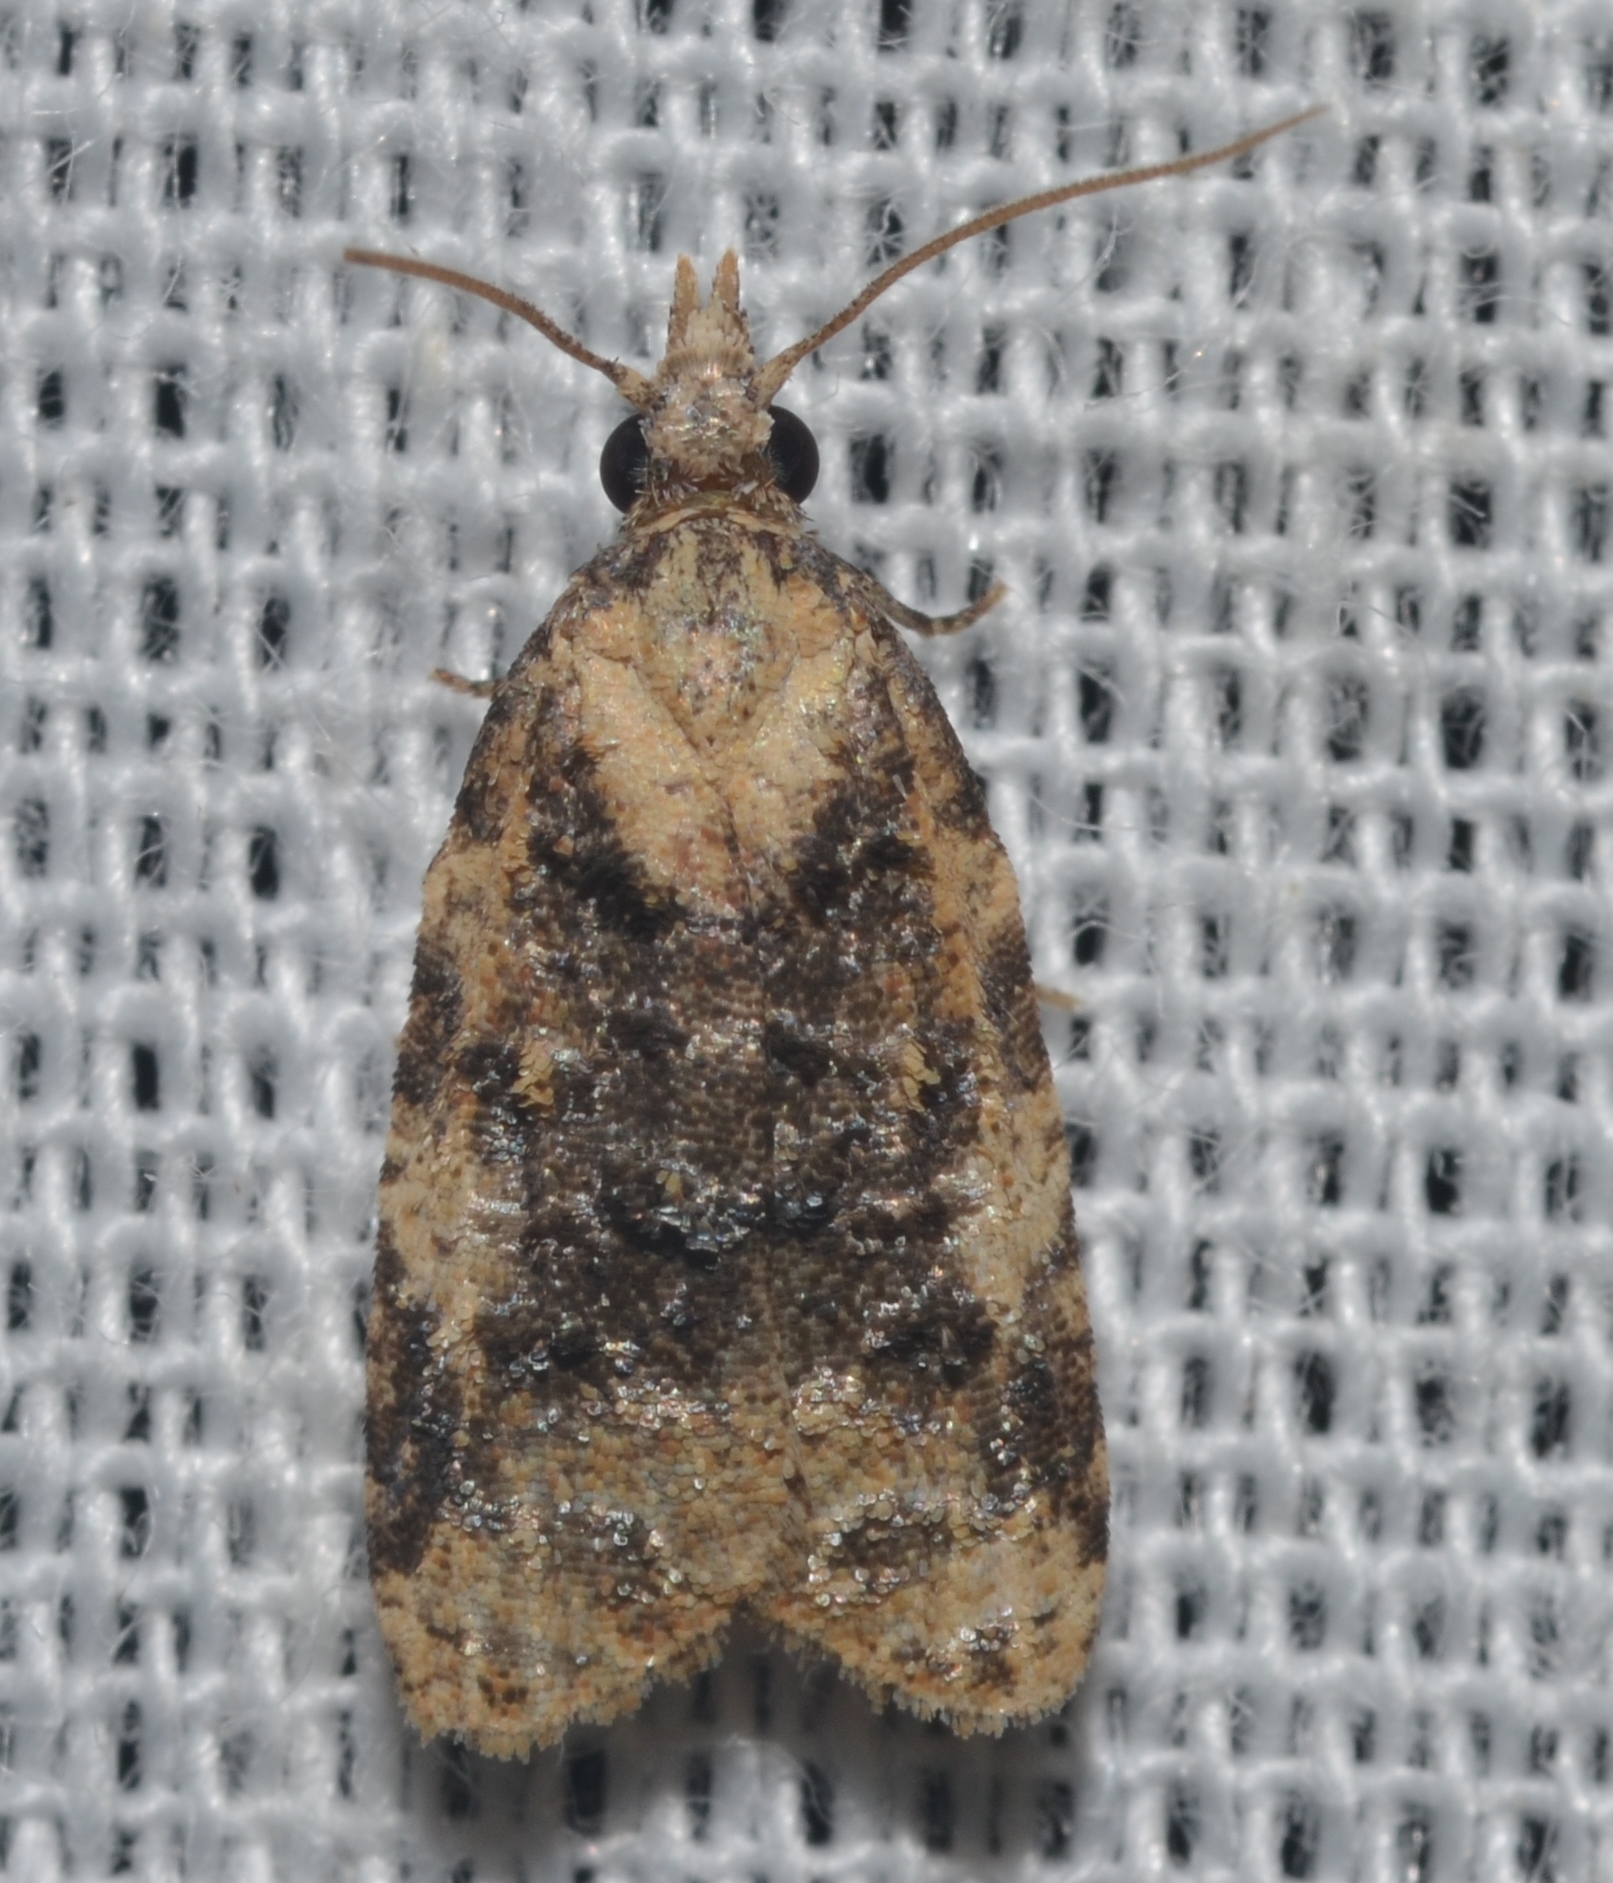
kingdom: Animalia
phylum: Arthropoda
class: Insecta
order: Lepidoptera
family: Tortricidae
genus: Platynota
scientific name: Platynota exasperatana
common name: Exasperating platynota moth
